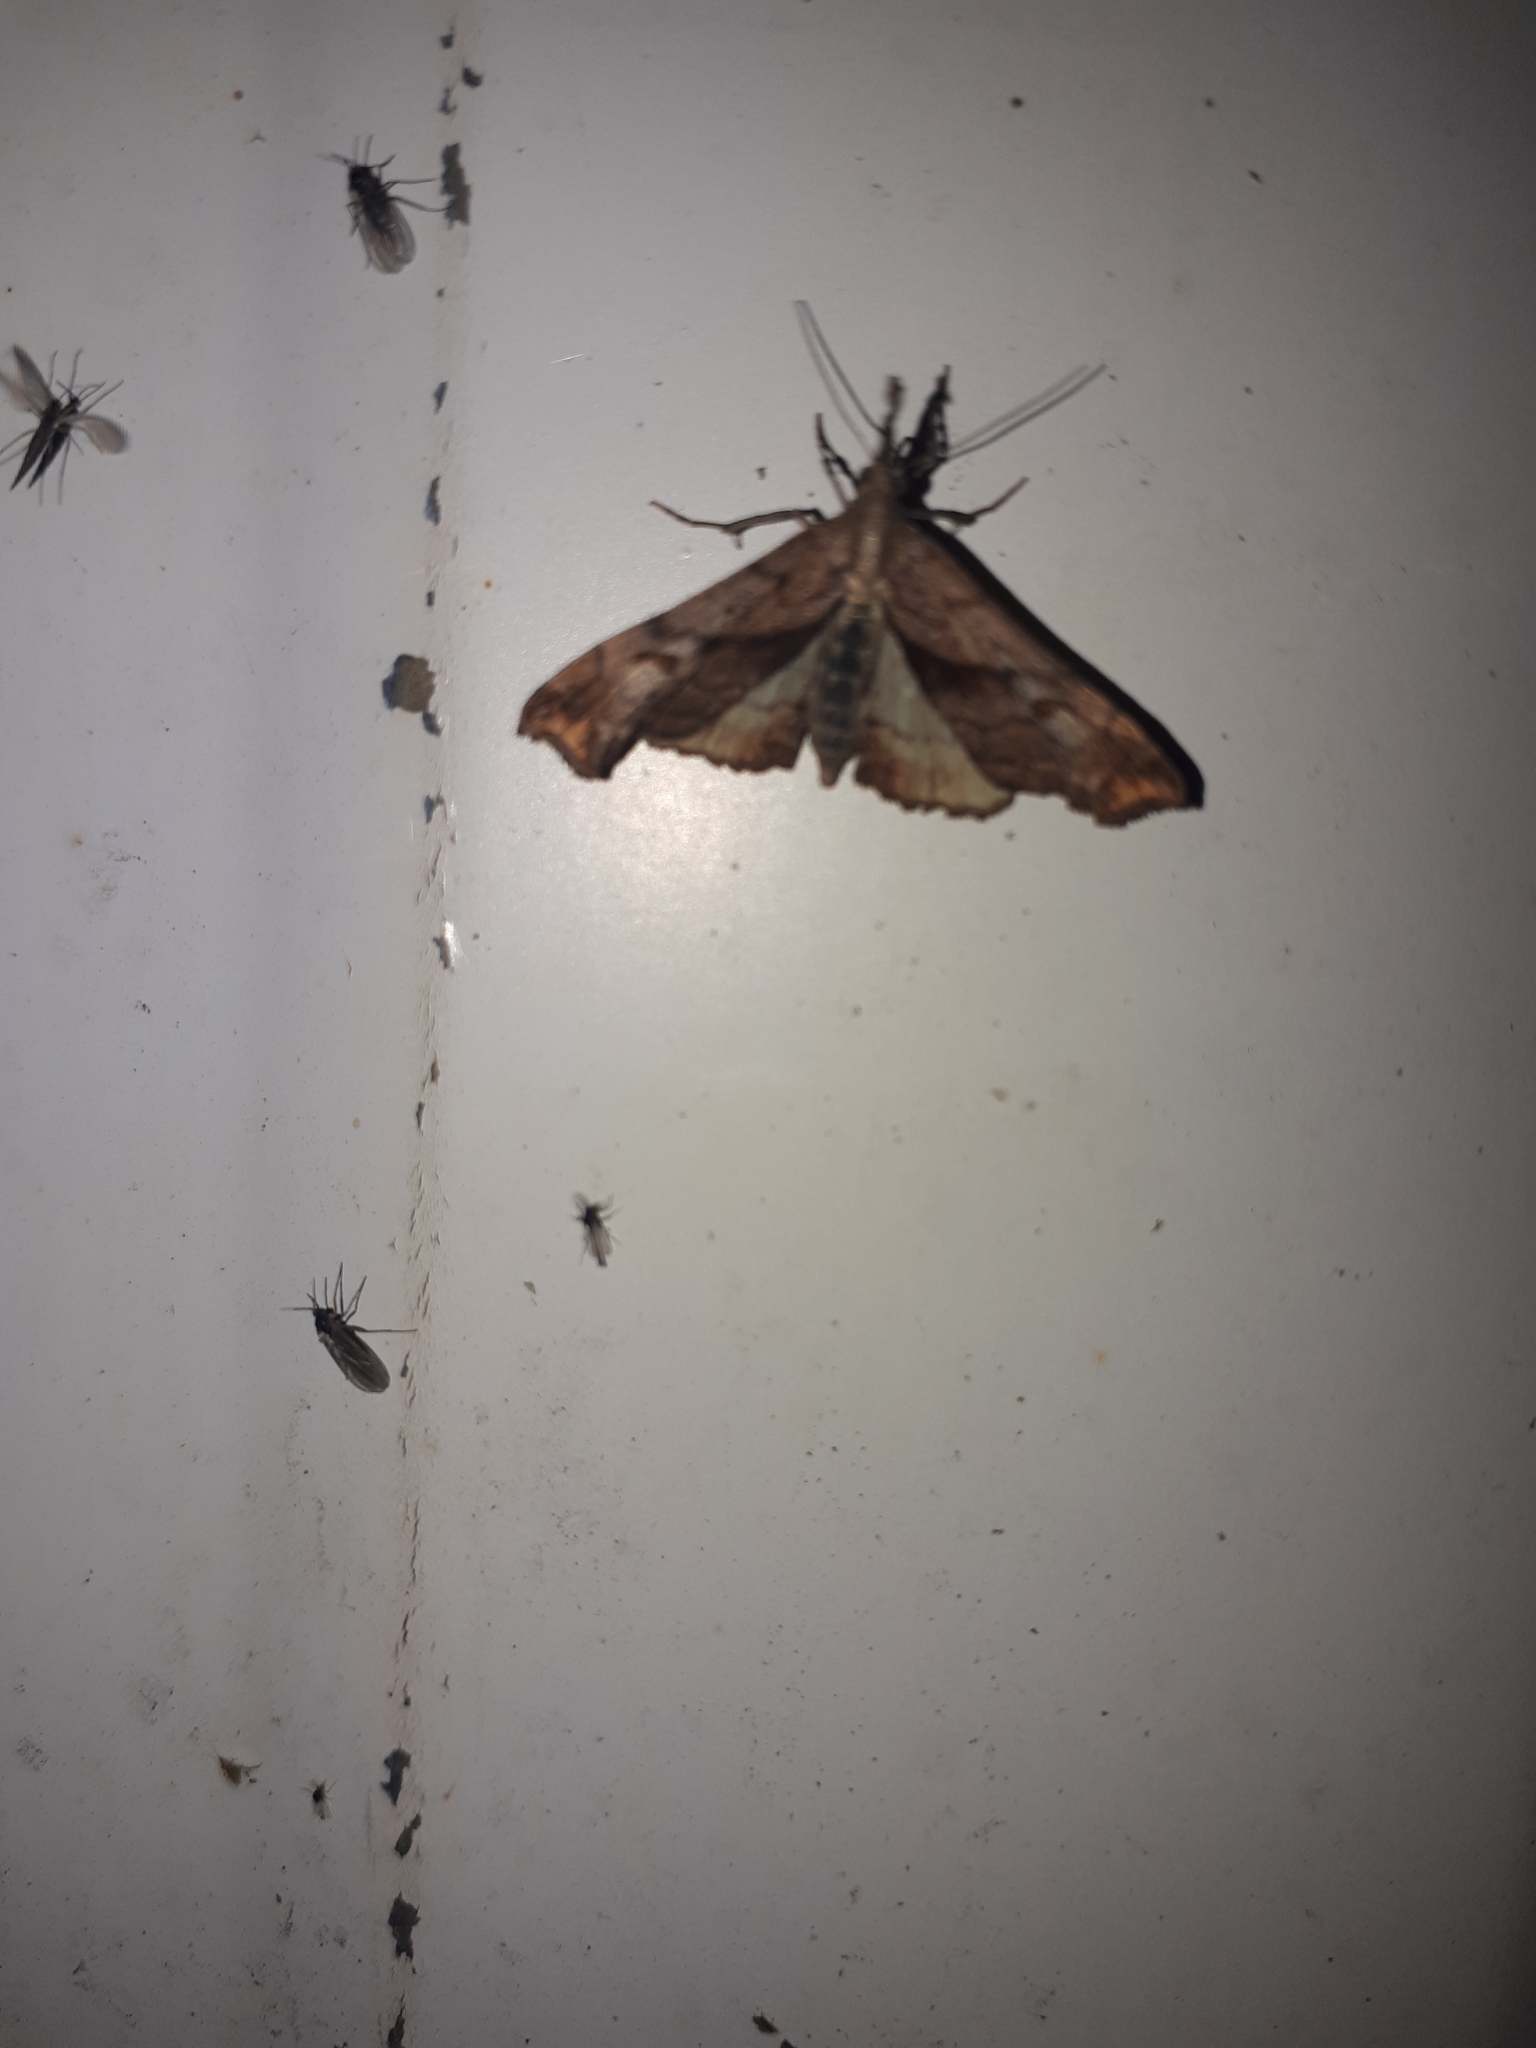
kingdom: Animalia
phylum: Arthropoda
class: Insecta
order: Lepidoptera
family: Erebidae
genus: Palthis
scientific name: Palthis angulalis
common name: Dark-spotted palthis moth
